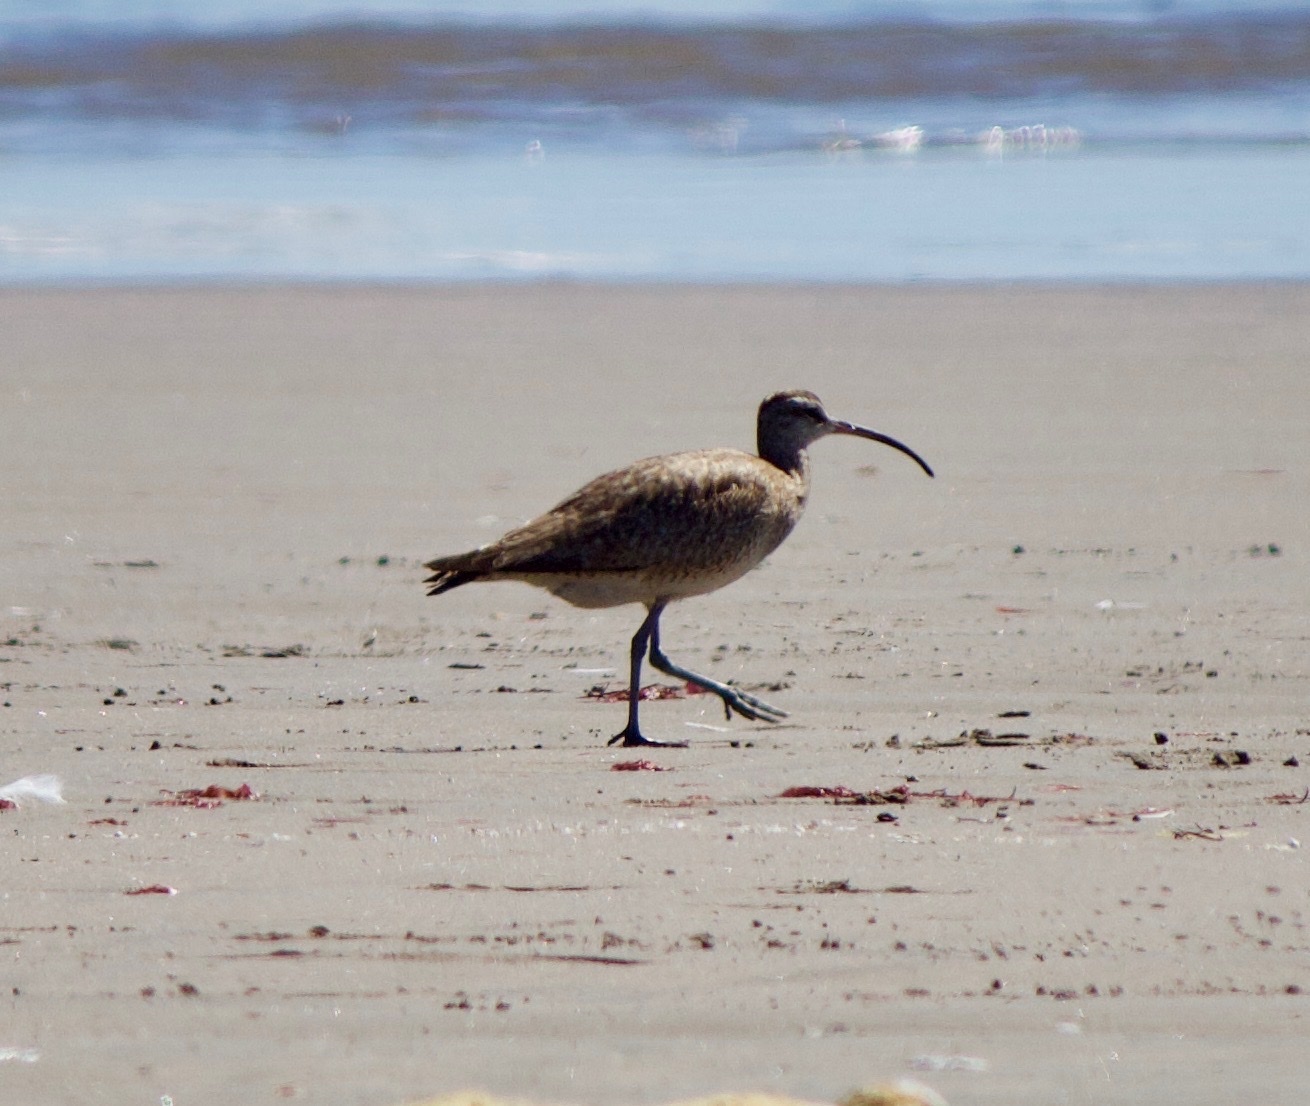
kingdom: Animalia
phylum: Chordata
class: Aves
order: Charadriiformes
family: Scolopacidae
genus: Numenius
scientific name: Numenius phaeopus
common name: Whimbrel
